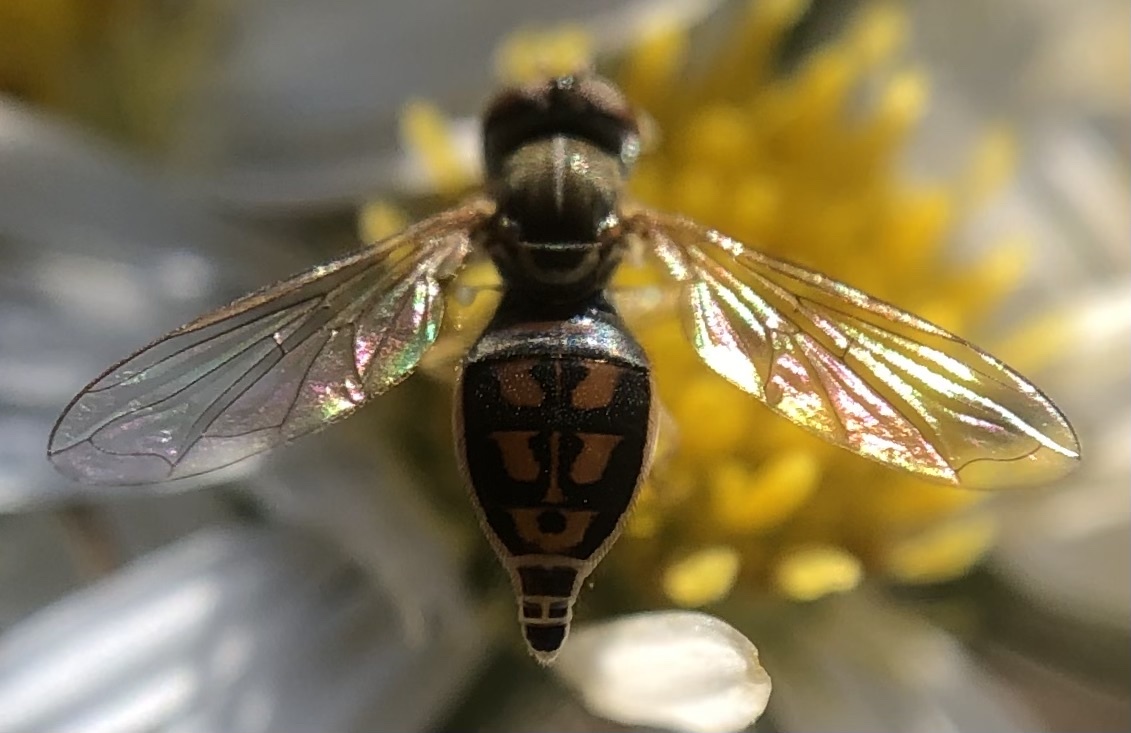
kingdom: Animalia
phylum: Arthropoda
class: Insecta
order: Diptera
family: Syrphidae
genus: Toxomerus
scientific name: Toxomerus marginatus
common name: Syrphid fly
